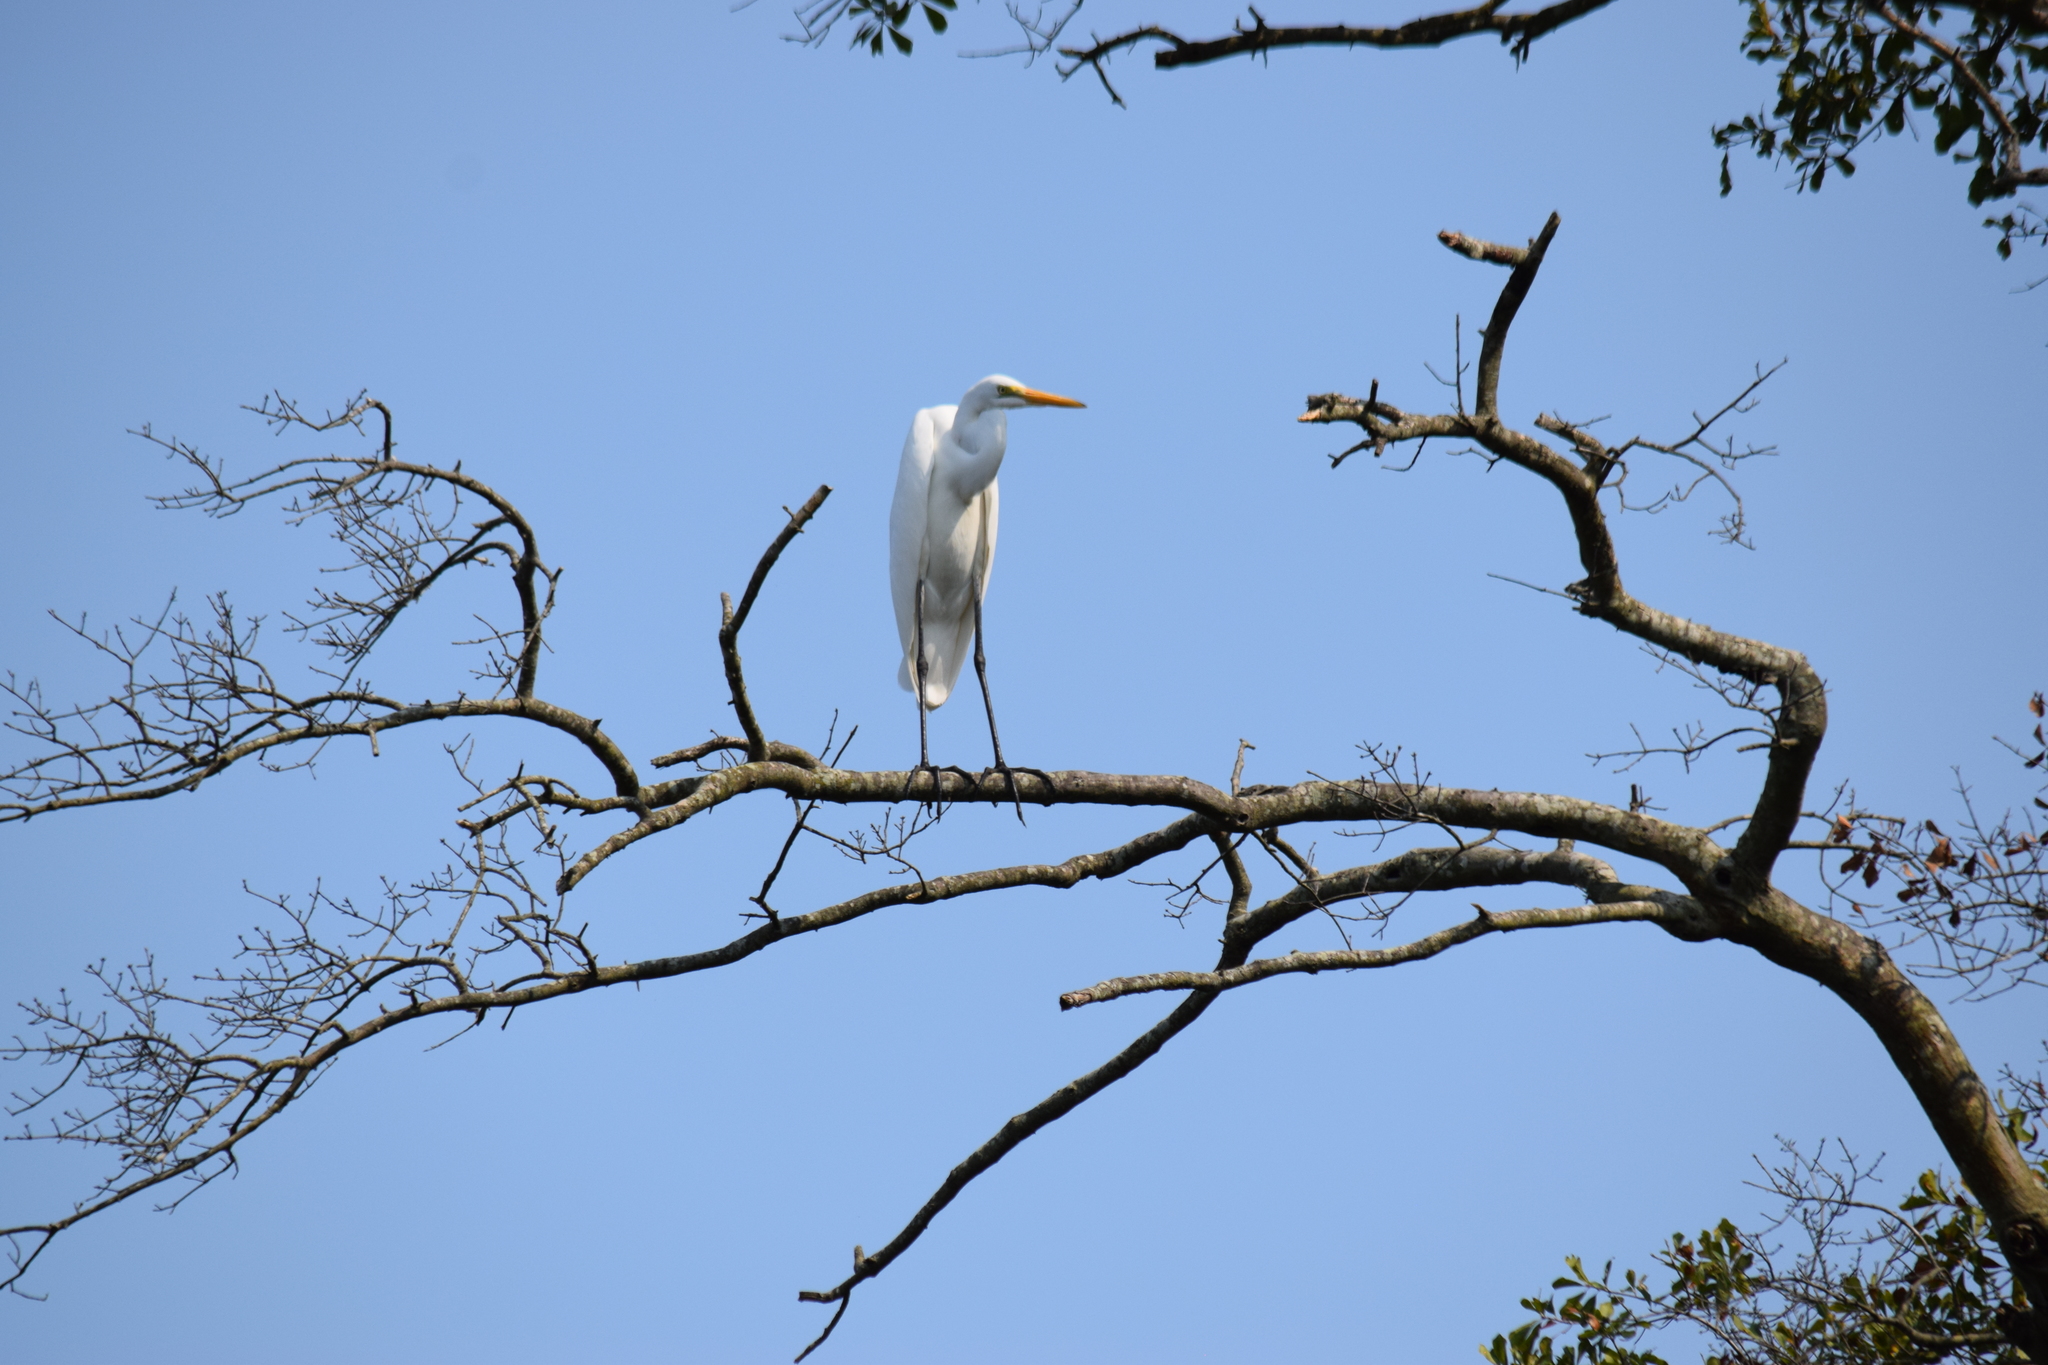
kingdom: Animalia
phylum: Chordata
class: Aves
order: Pelecaniformes
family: Ardeidae
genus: Ardea
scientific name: Ardea alba
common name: Great egret
